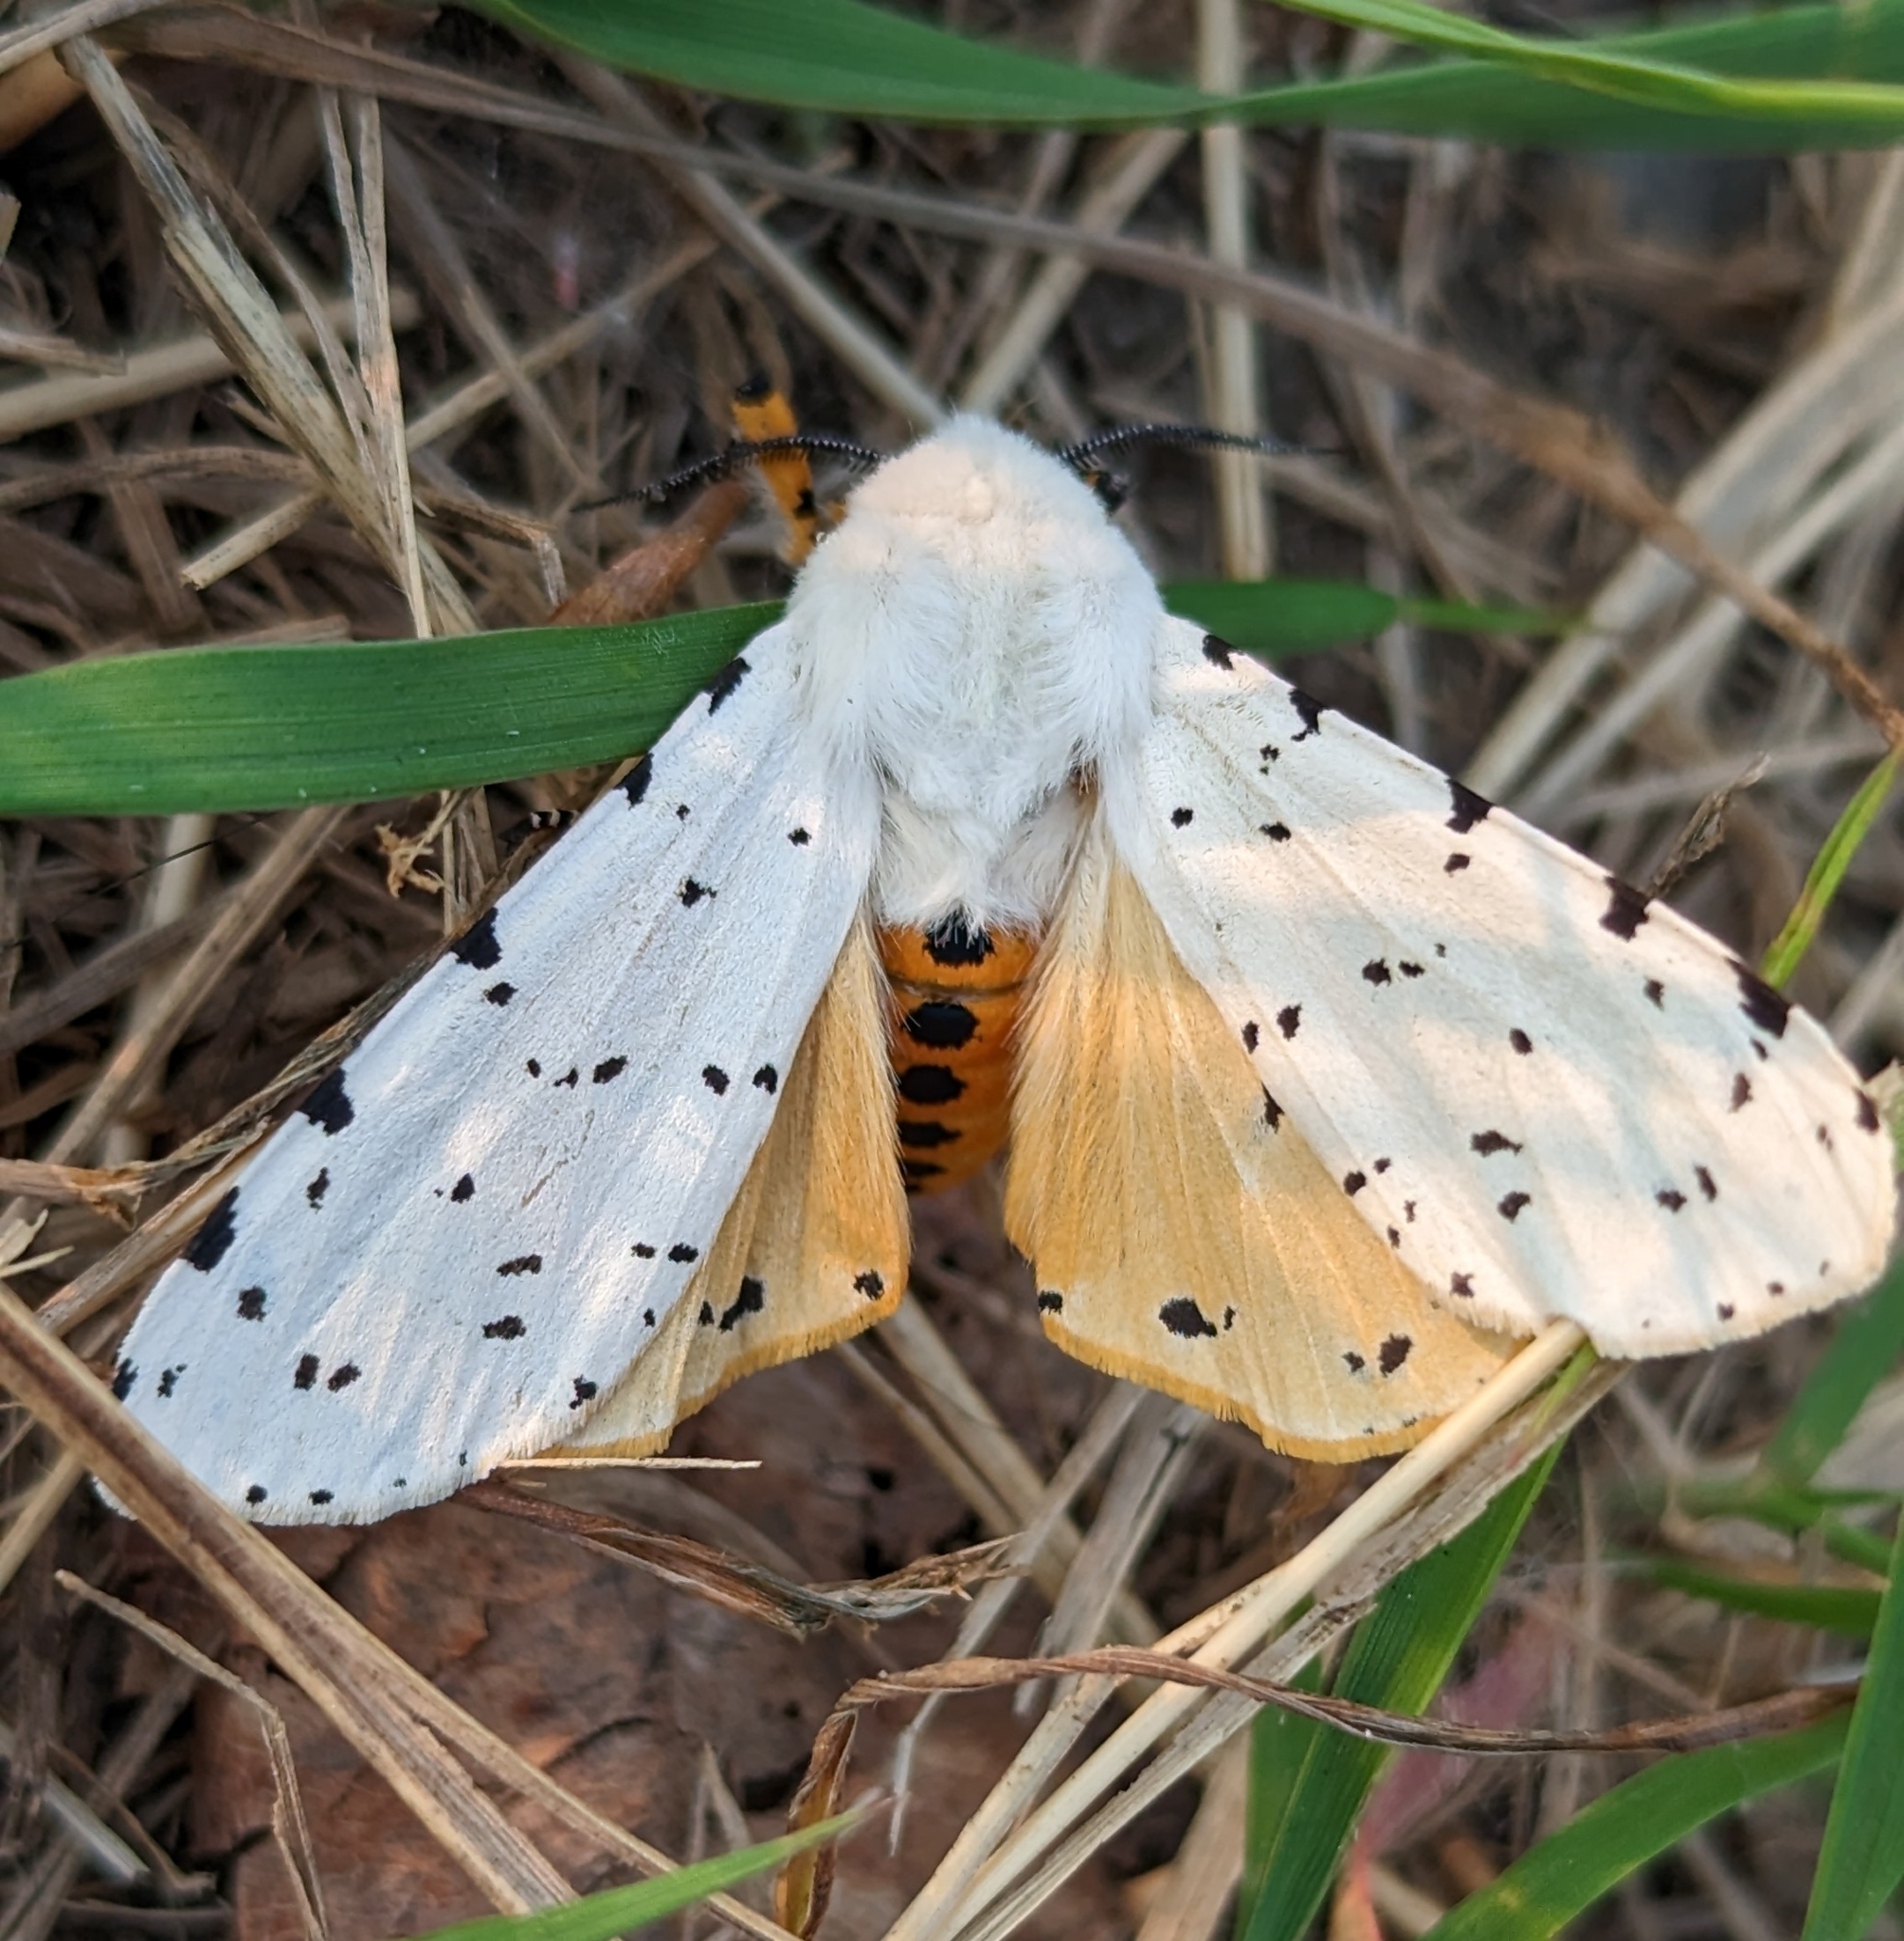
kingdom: Animalia
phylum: Arthropoda
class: Insecta
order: Lepidoptera
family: Erebidae
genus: Estigmene
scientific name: Estigmene acrea
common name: Salt marsh moth
